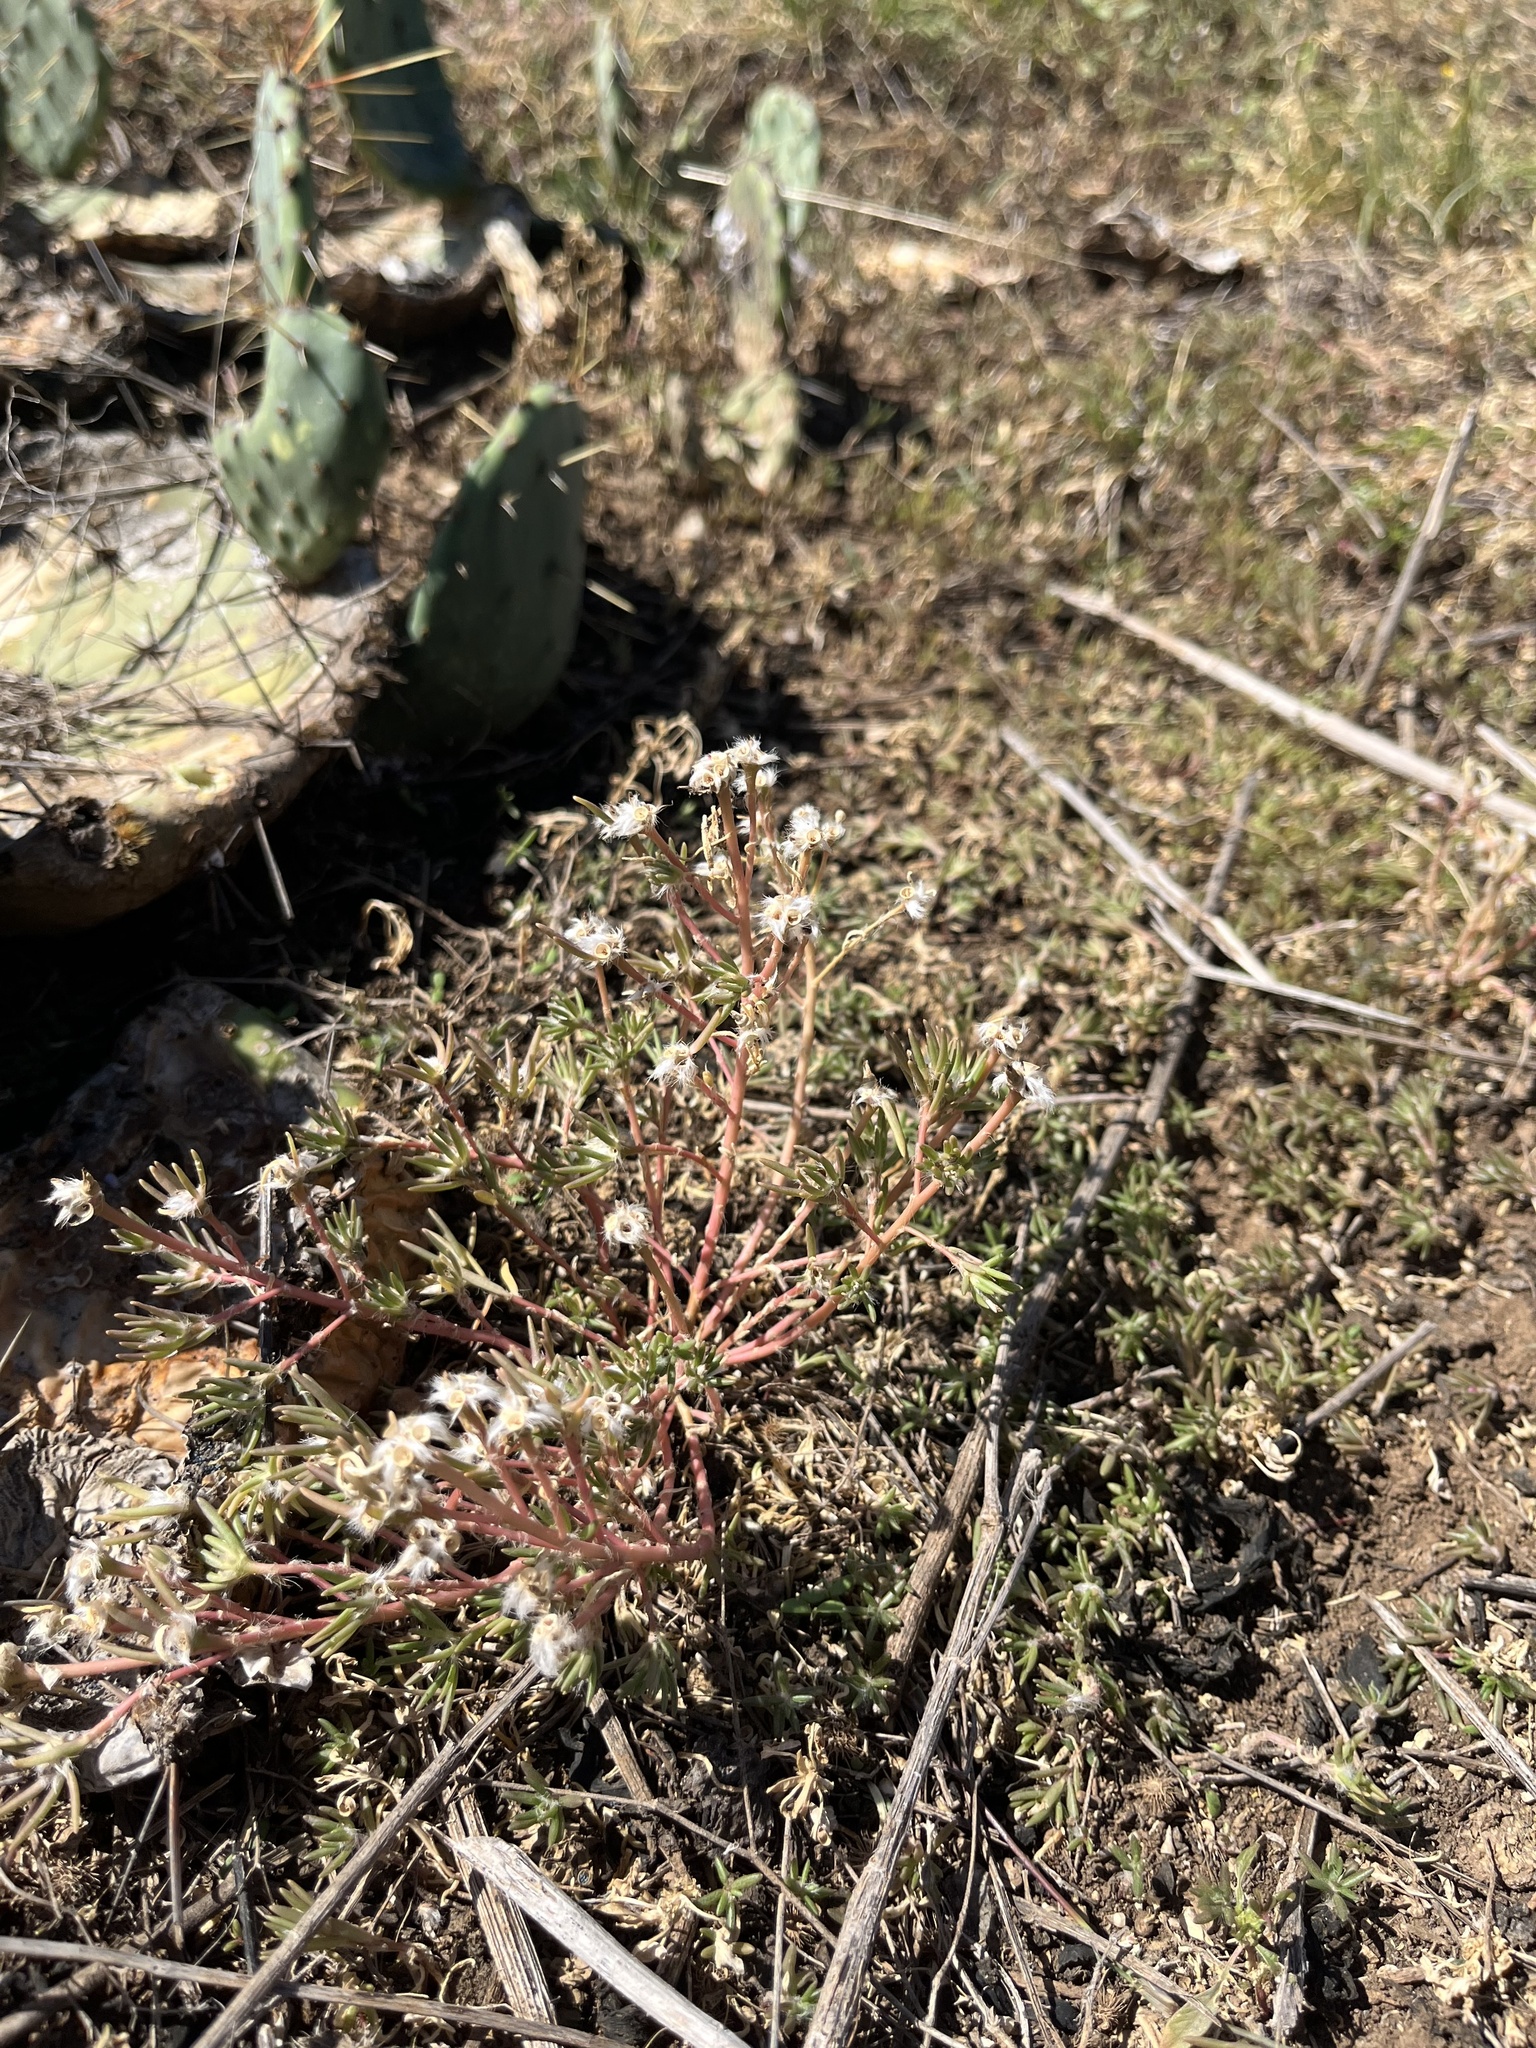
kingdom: Plantae
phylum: Tracheophyta
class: Magnoliopsida
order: Caryophyllales
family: Portulacaceae
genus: Portulaca
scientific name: Portulaca pilosa
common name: Kiss me quick
